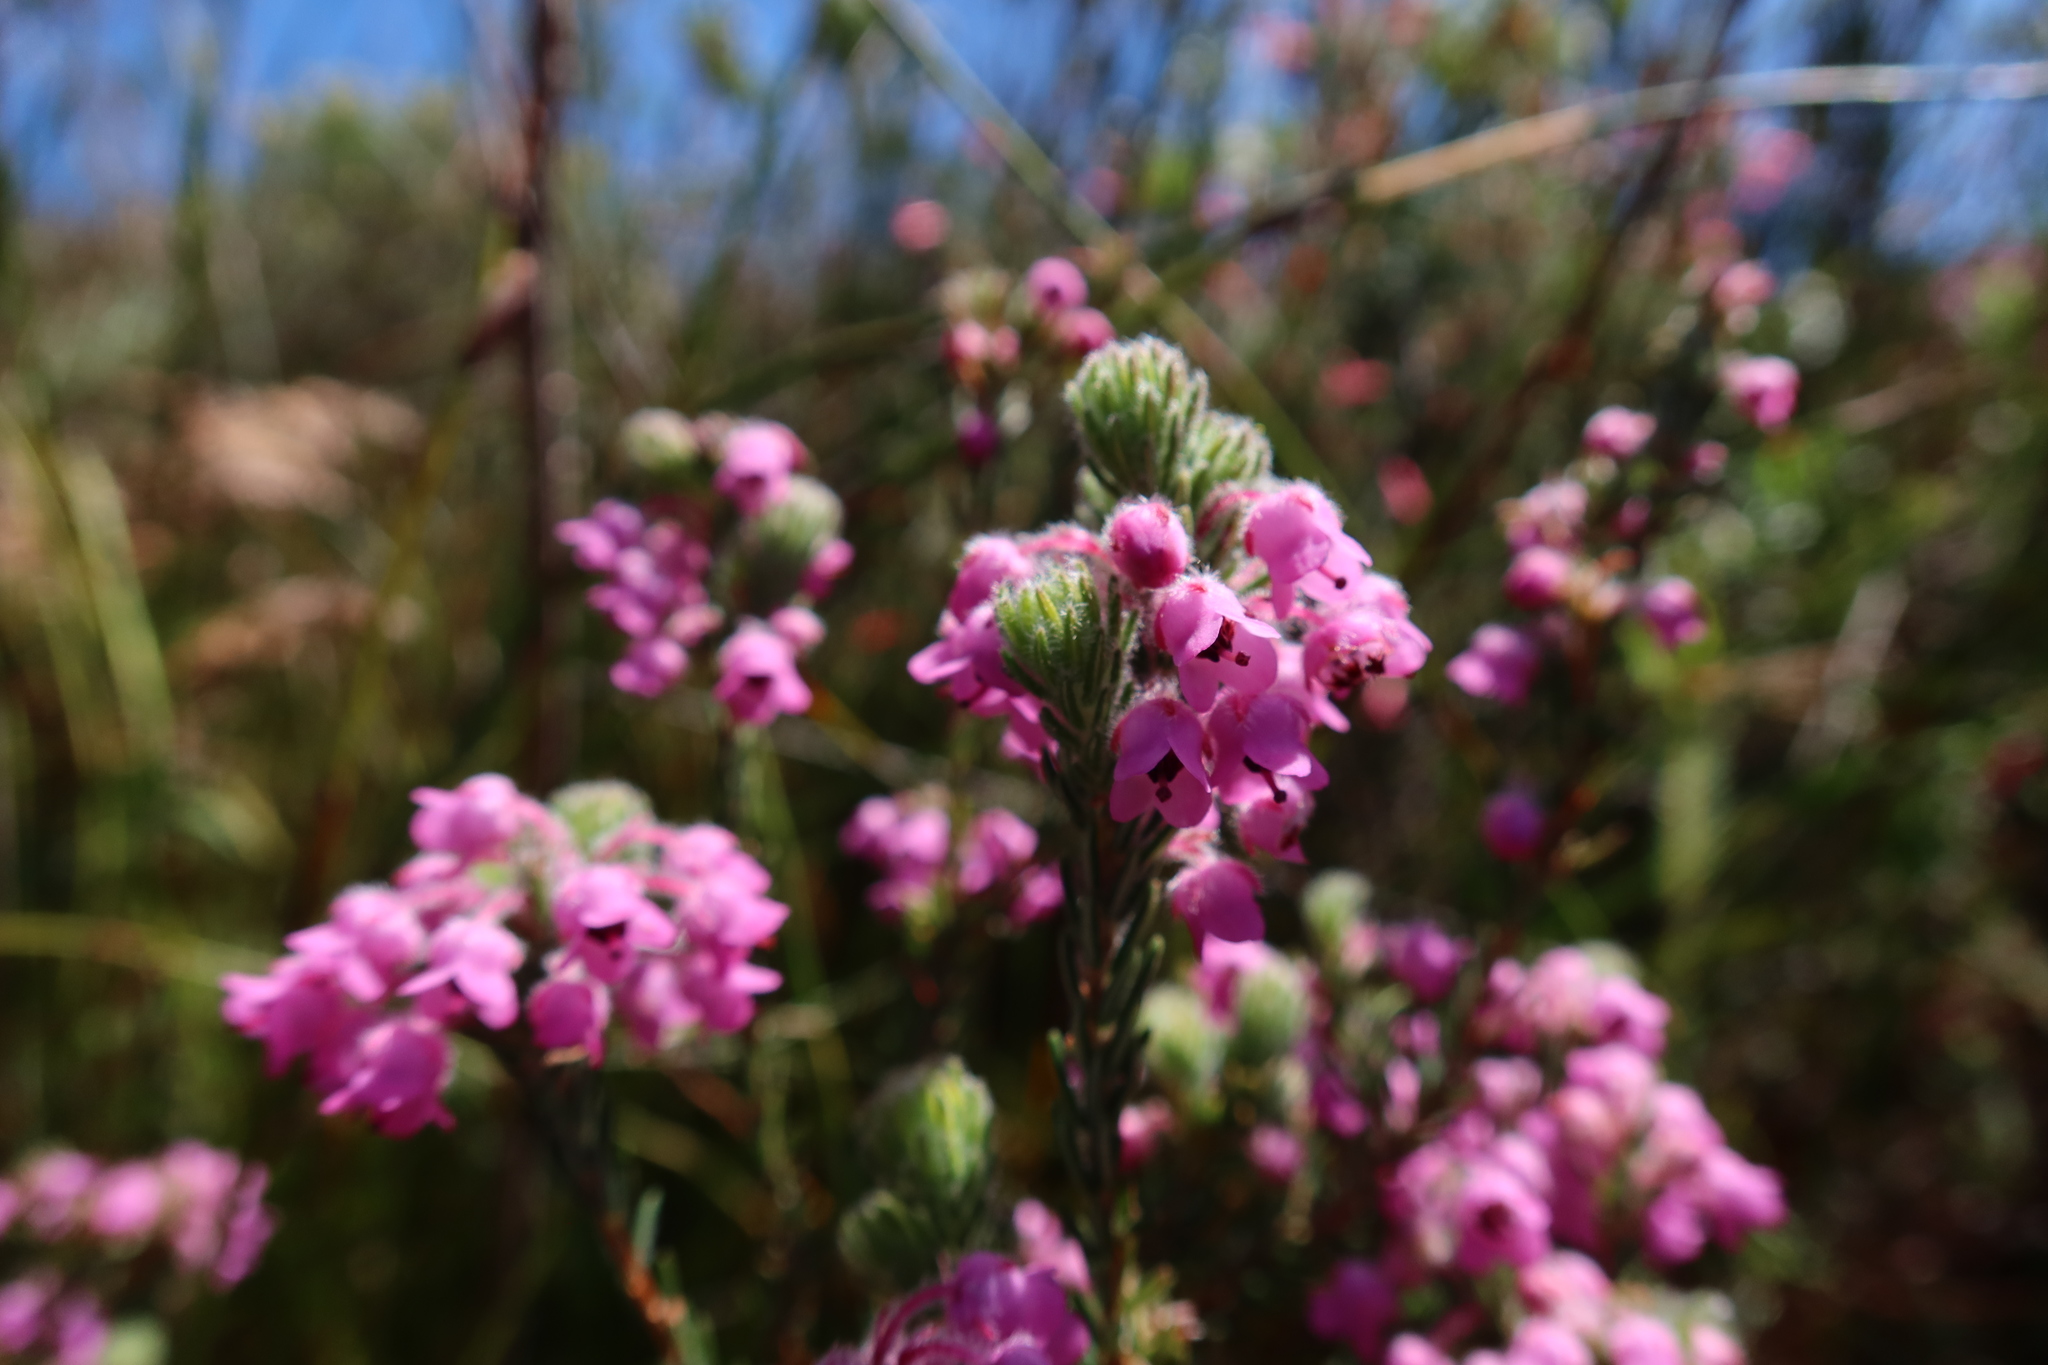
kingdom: Plantae
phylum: Tracheophyta
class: Magnoliopsida
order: Ericales
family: Ericaceae
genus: Erica
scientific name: Erica amoena
